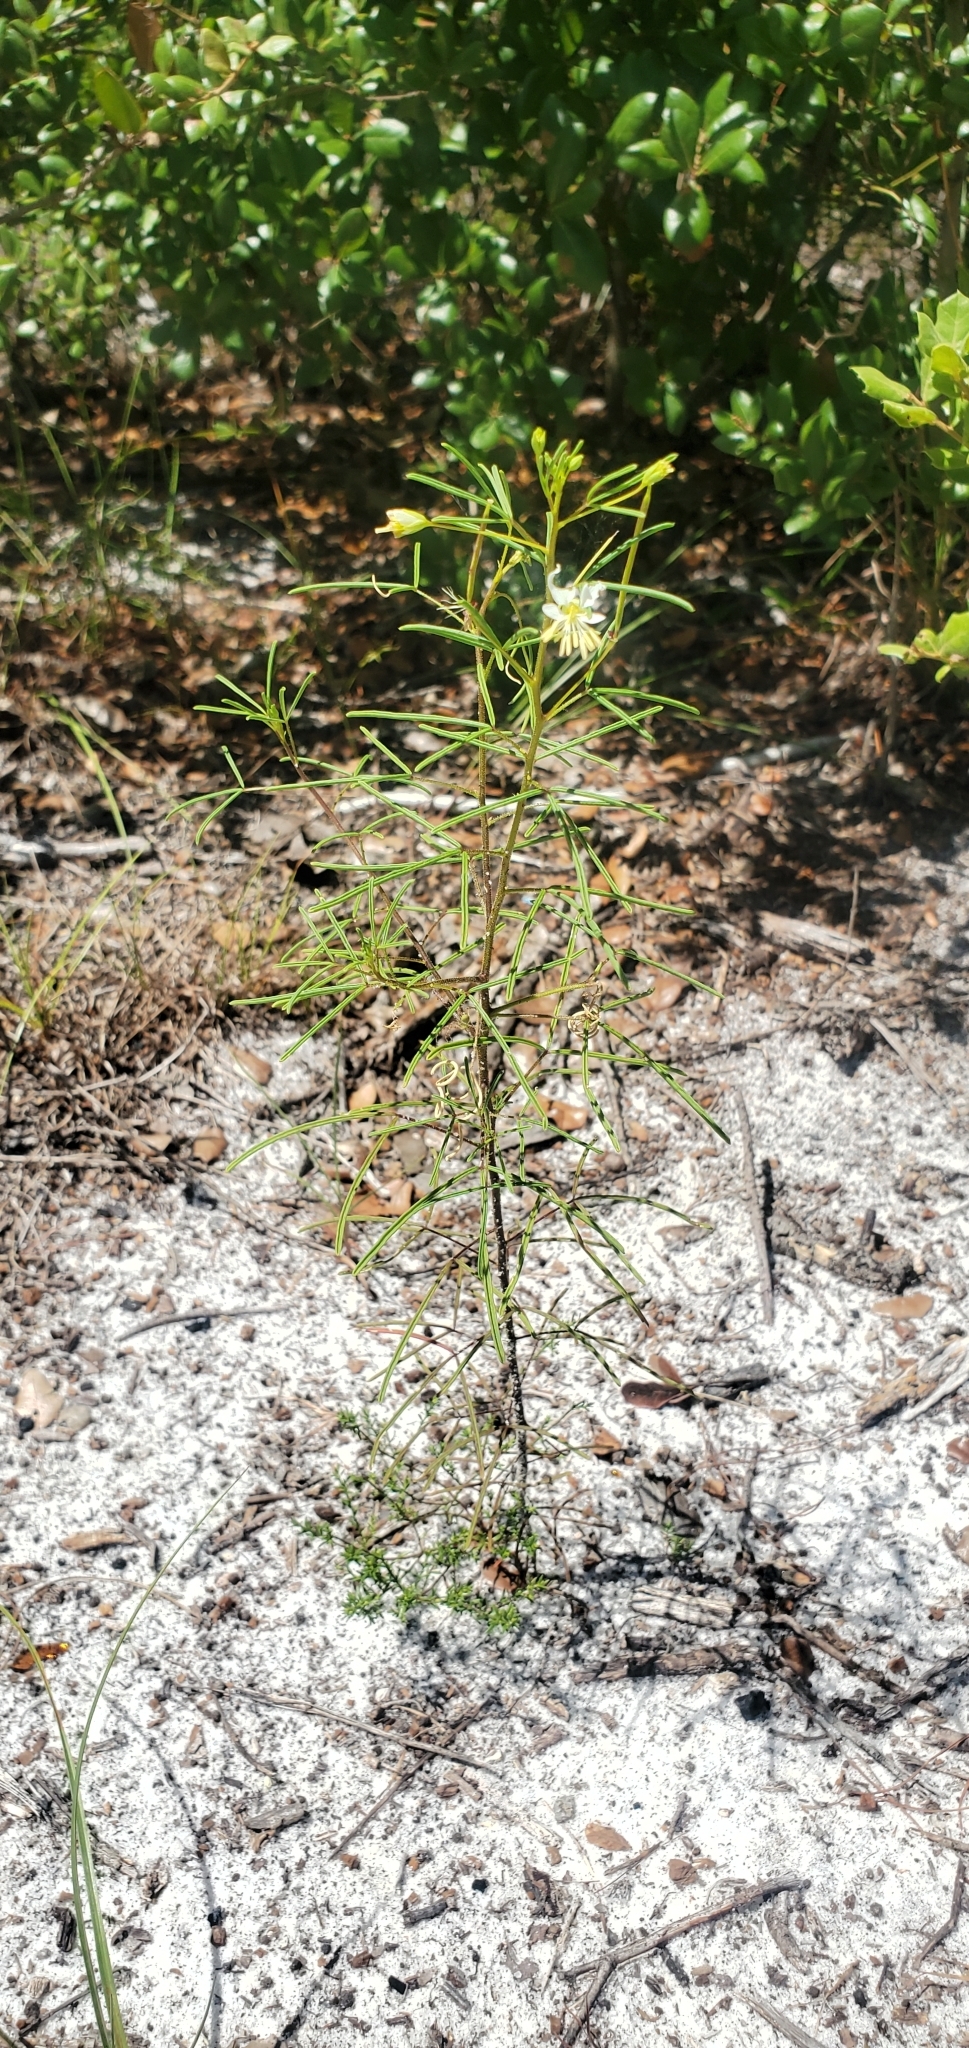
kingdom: Plantae
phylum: Tracheophyta
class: Magnoliopsida
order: Brassicales
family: Cleomaceae
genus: Polanisia
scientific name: Polanisia tenuifolia
